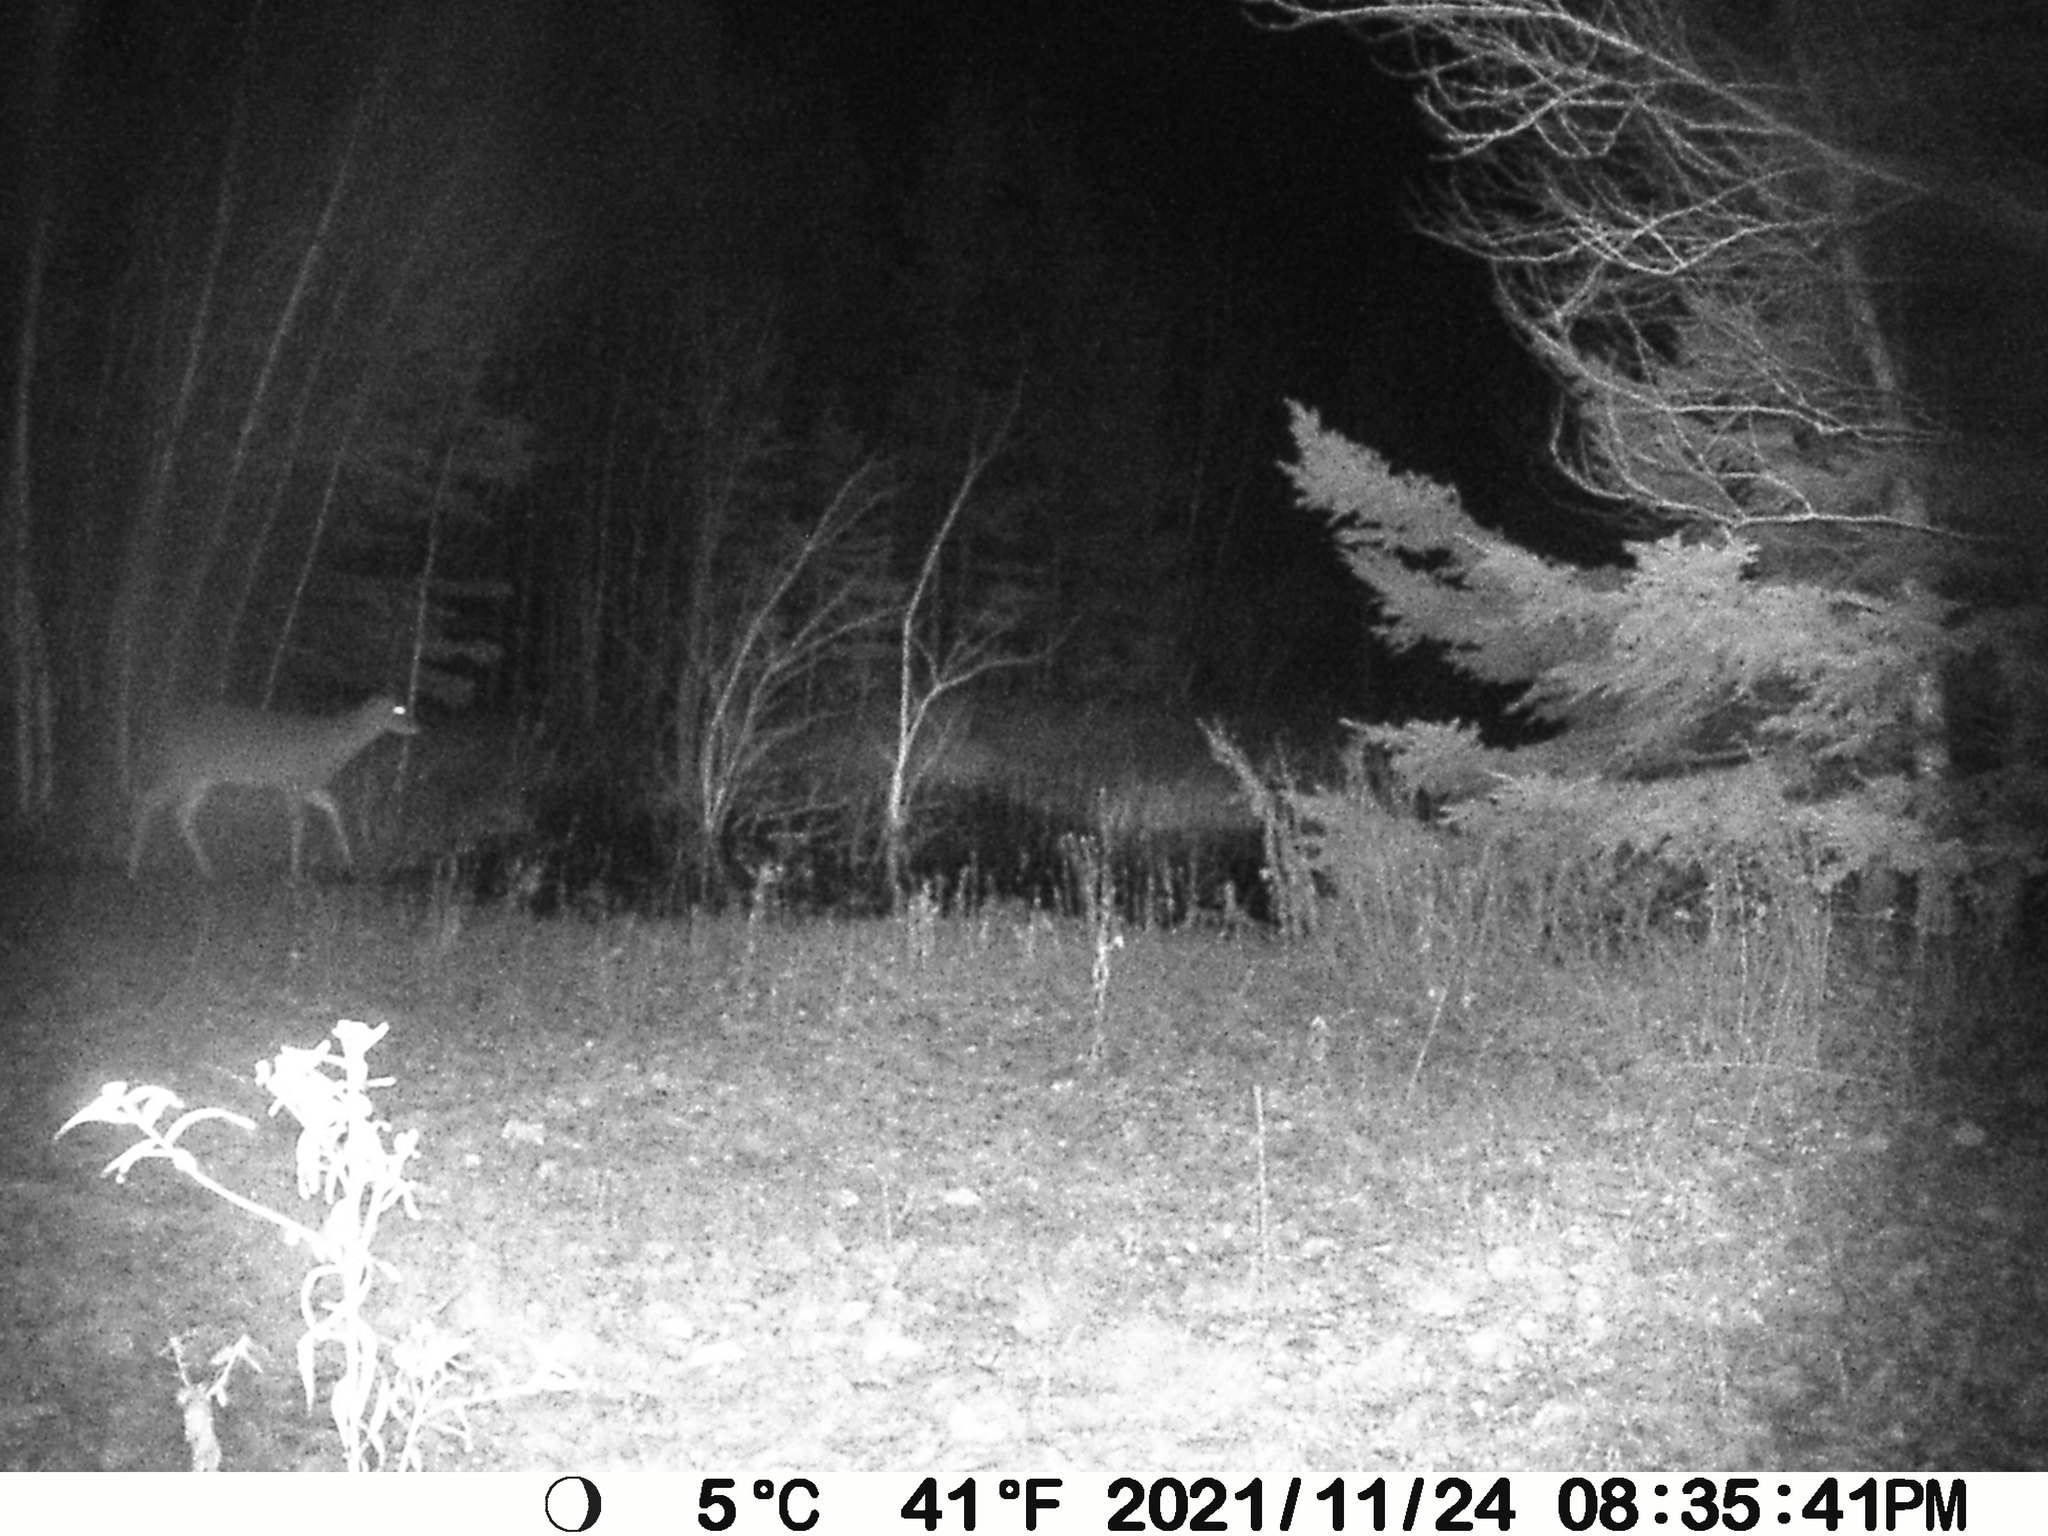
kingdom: Animalia
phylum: Chordata
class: Mammalia
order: Artiodactyla
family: Cervidae
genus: Odocoileus
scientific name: Odocoileus virginianus
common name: White-tailed deer
